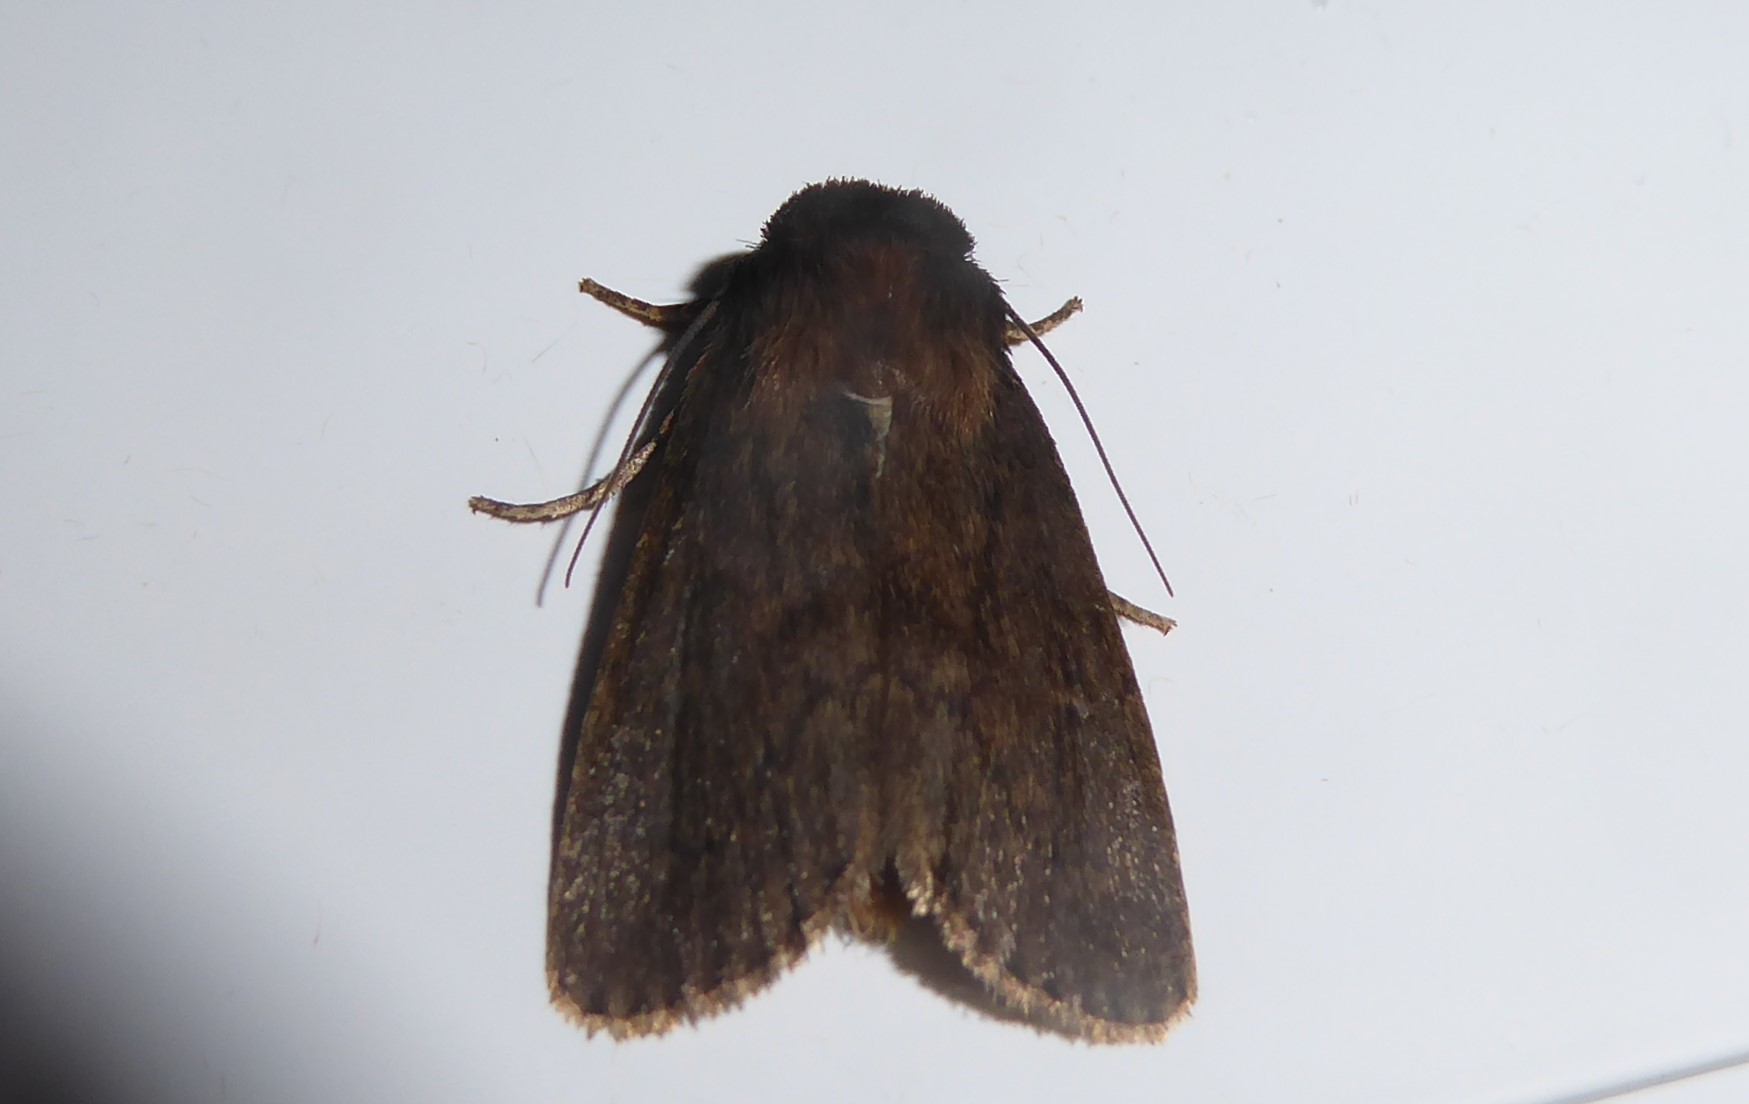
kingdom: Animalia
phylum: Arthropoda
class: Insecta
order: Lepidoptera
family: Noctuidae
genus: Bityla
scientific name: Bityla defigurata
